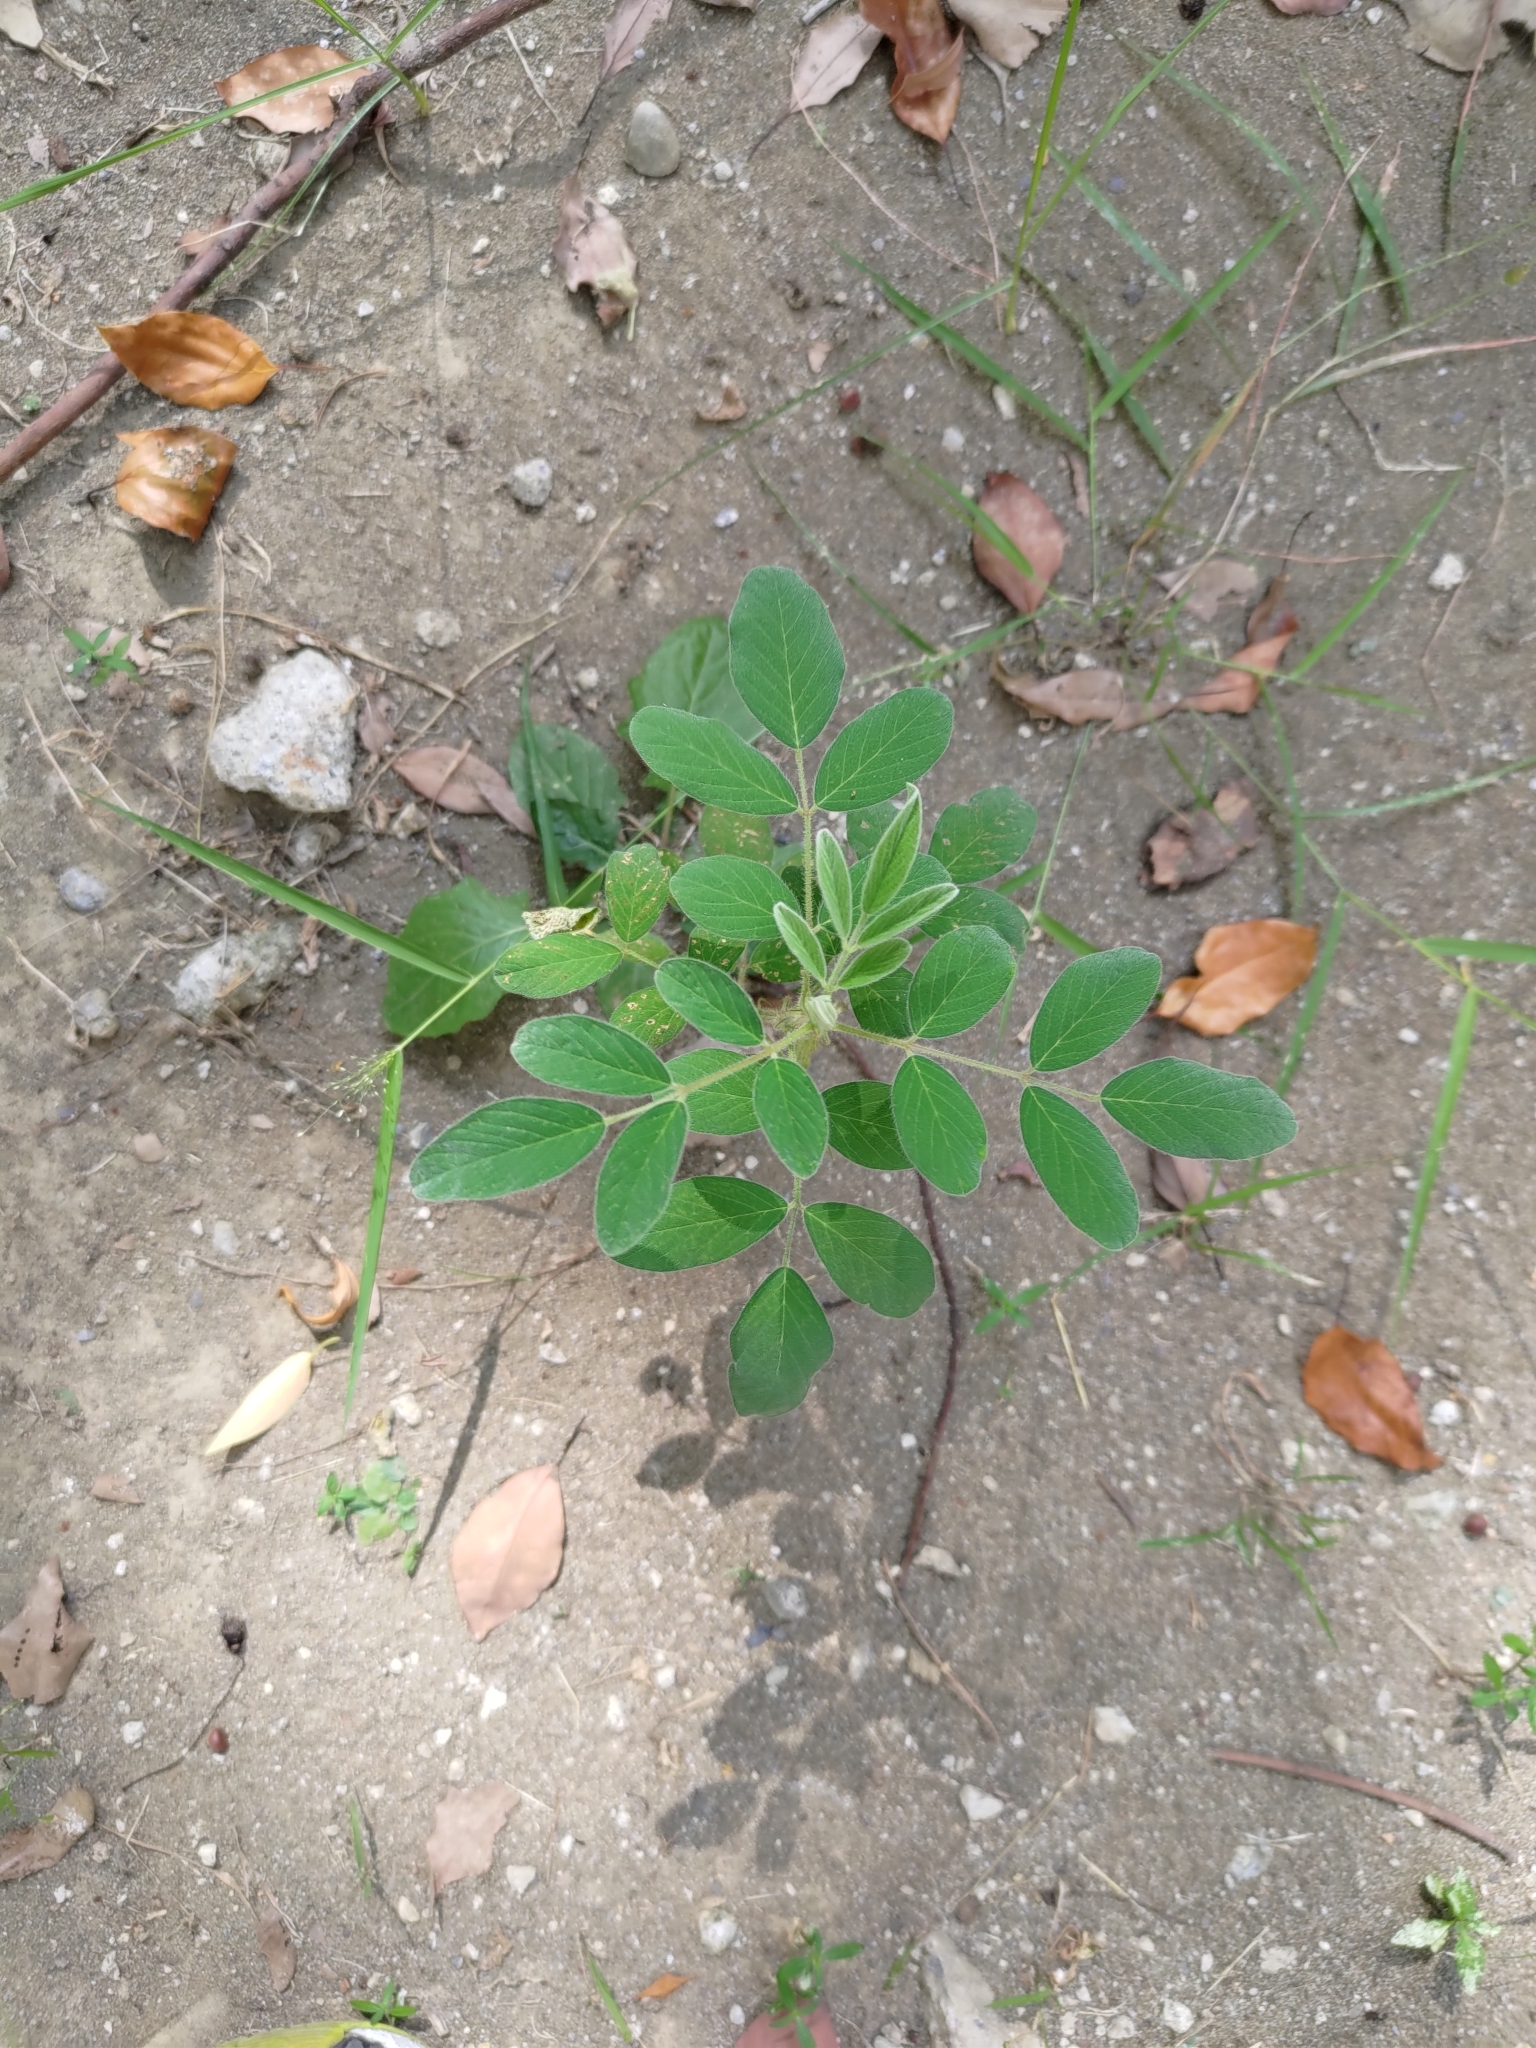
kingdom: Plantae
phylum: Tracheophyta
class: Magnoliopsida
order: Fabales
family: Fabaceae
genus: Indigofera
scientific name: Indigofera hirsuta
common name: Hairy indigo
